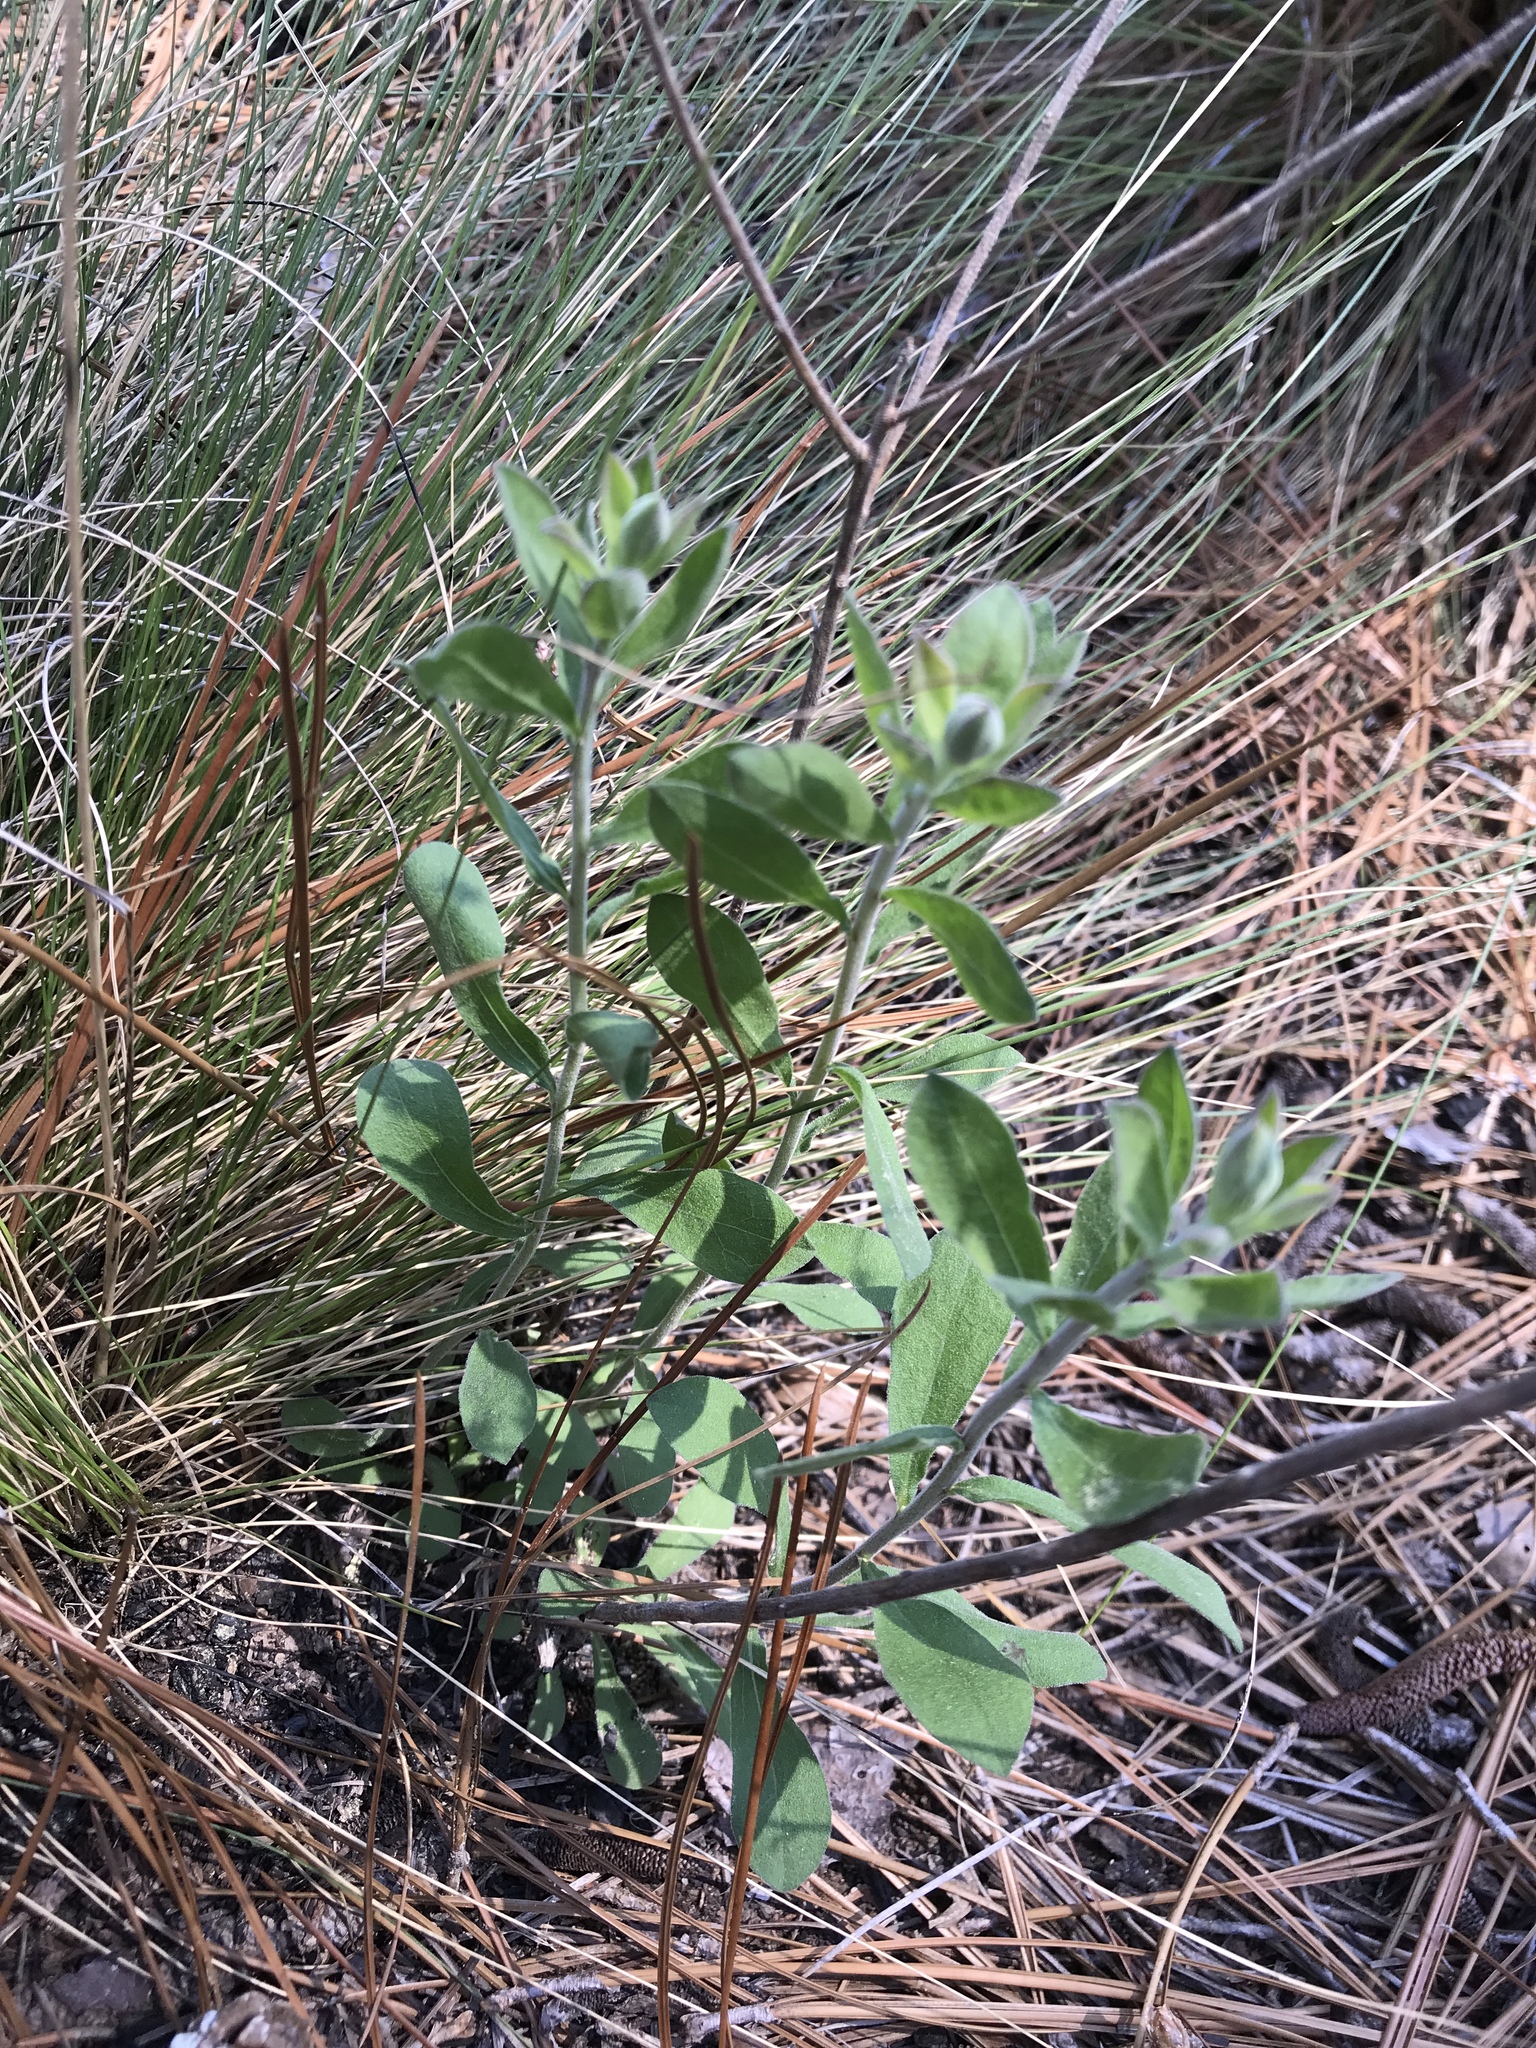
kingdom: Plantae
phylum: Tracheophyta
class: Magnoliopsida
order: Asterales
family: Asteraceae
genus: Sericocarpus
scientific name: Sericocarpus tortifolius
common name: Dixie aster
